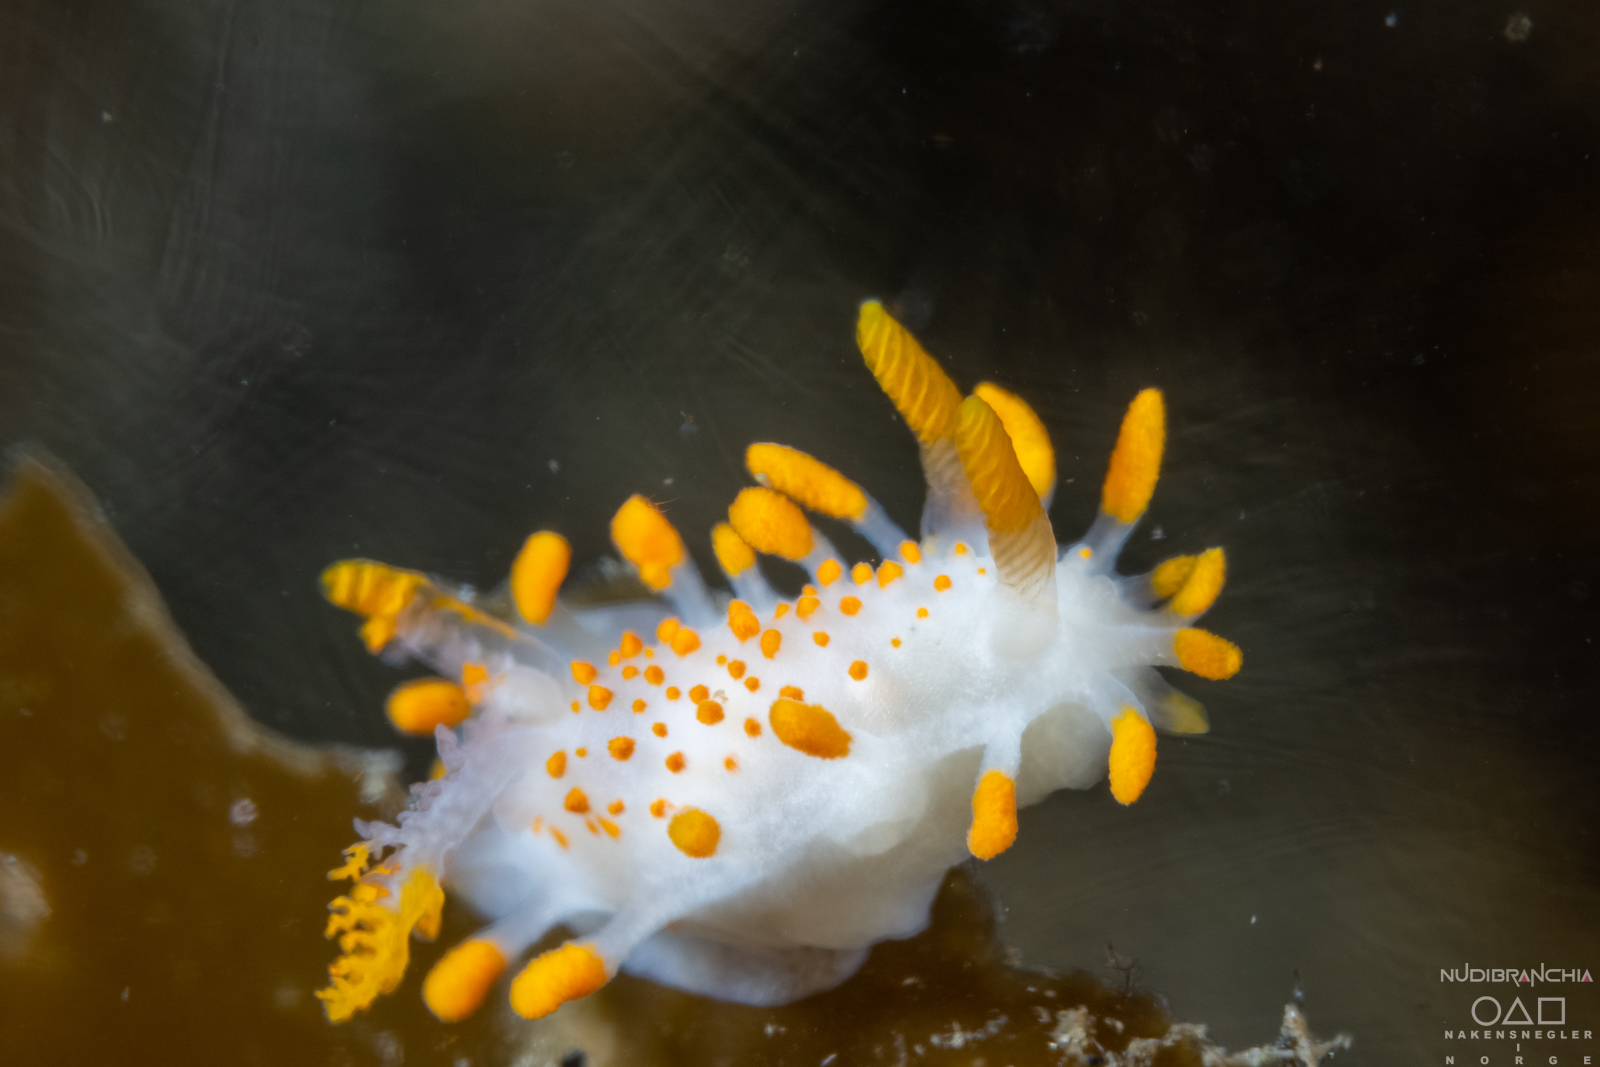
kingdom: Animalia
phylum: Mollusca
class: Gastropoda
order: Nudibranchia
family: Polyceridae
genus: Limacia
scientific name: Limacia clavigera
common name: Orange-clubbed sea slug
